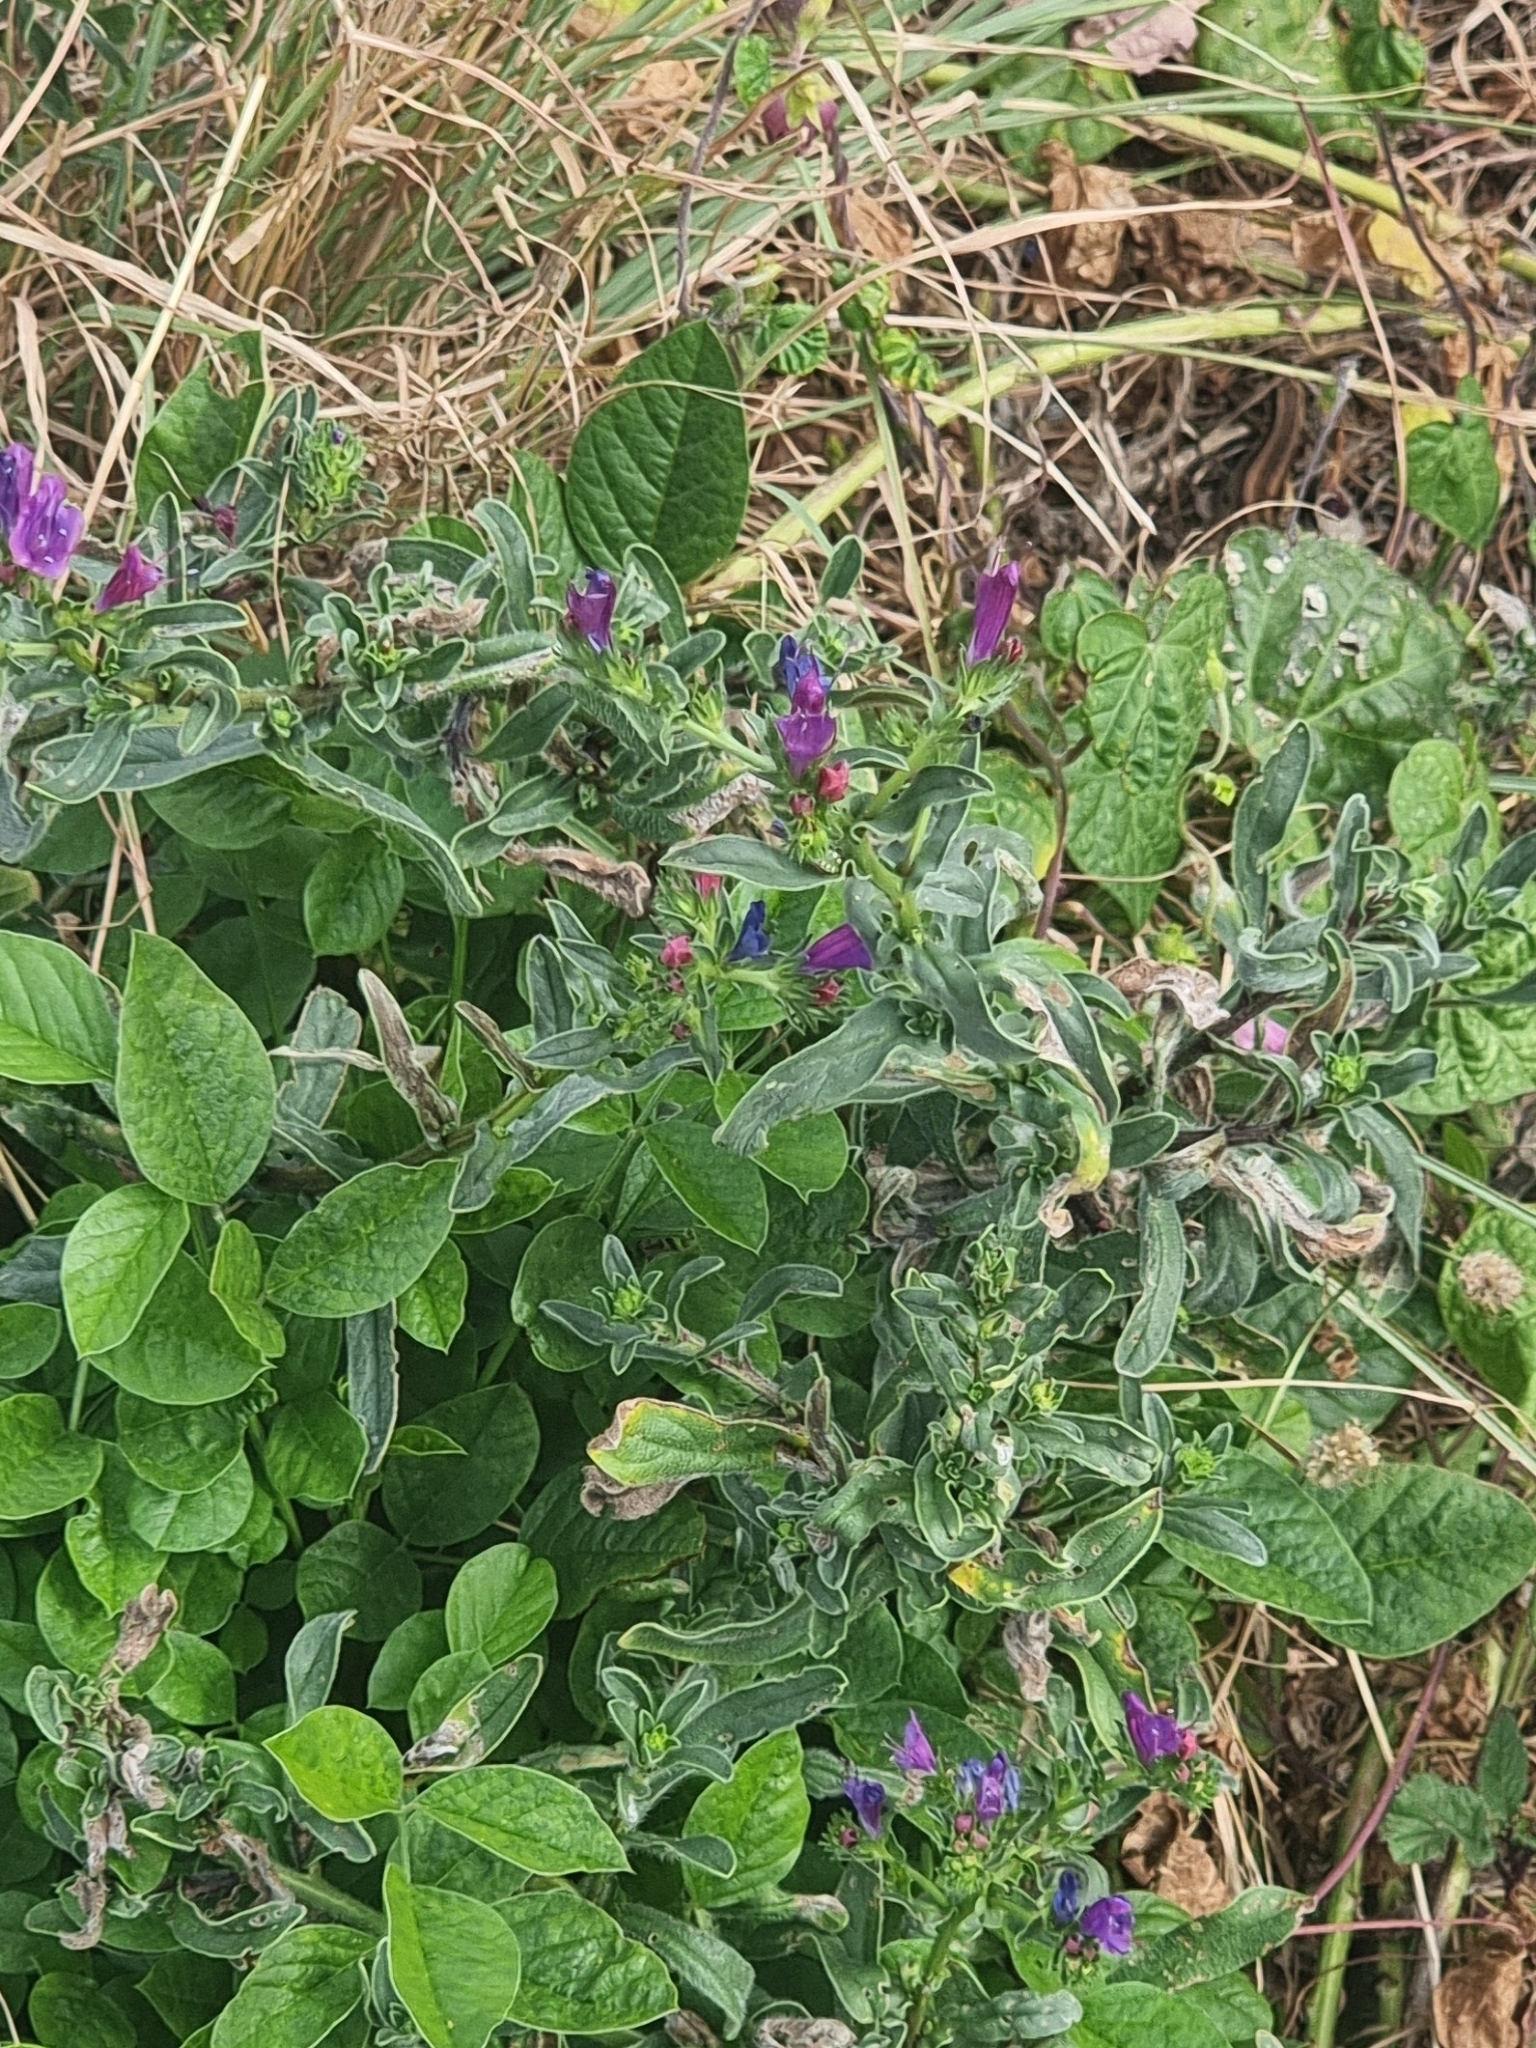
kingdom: Plantae
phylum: Tracheophyta
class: Magnoliopsida
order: Boraginales
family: Boraginaceae
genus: Echium
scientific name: Echium plantagineum
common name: Purple viper's-bugloss
